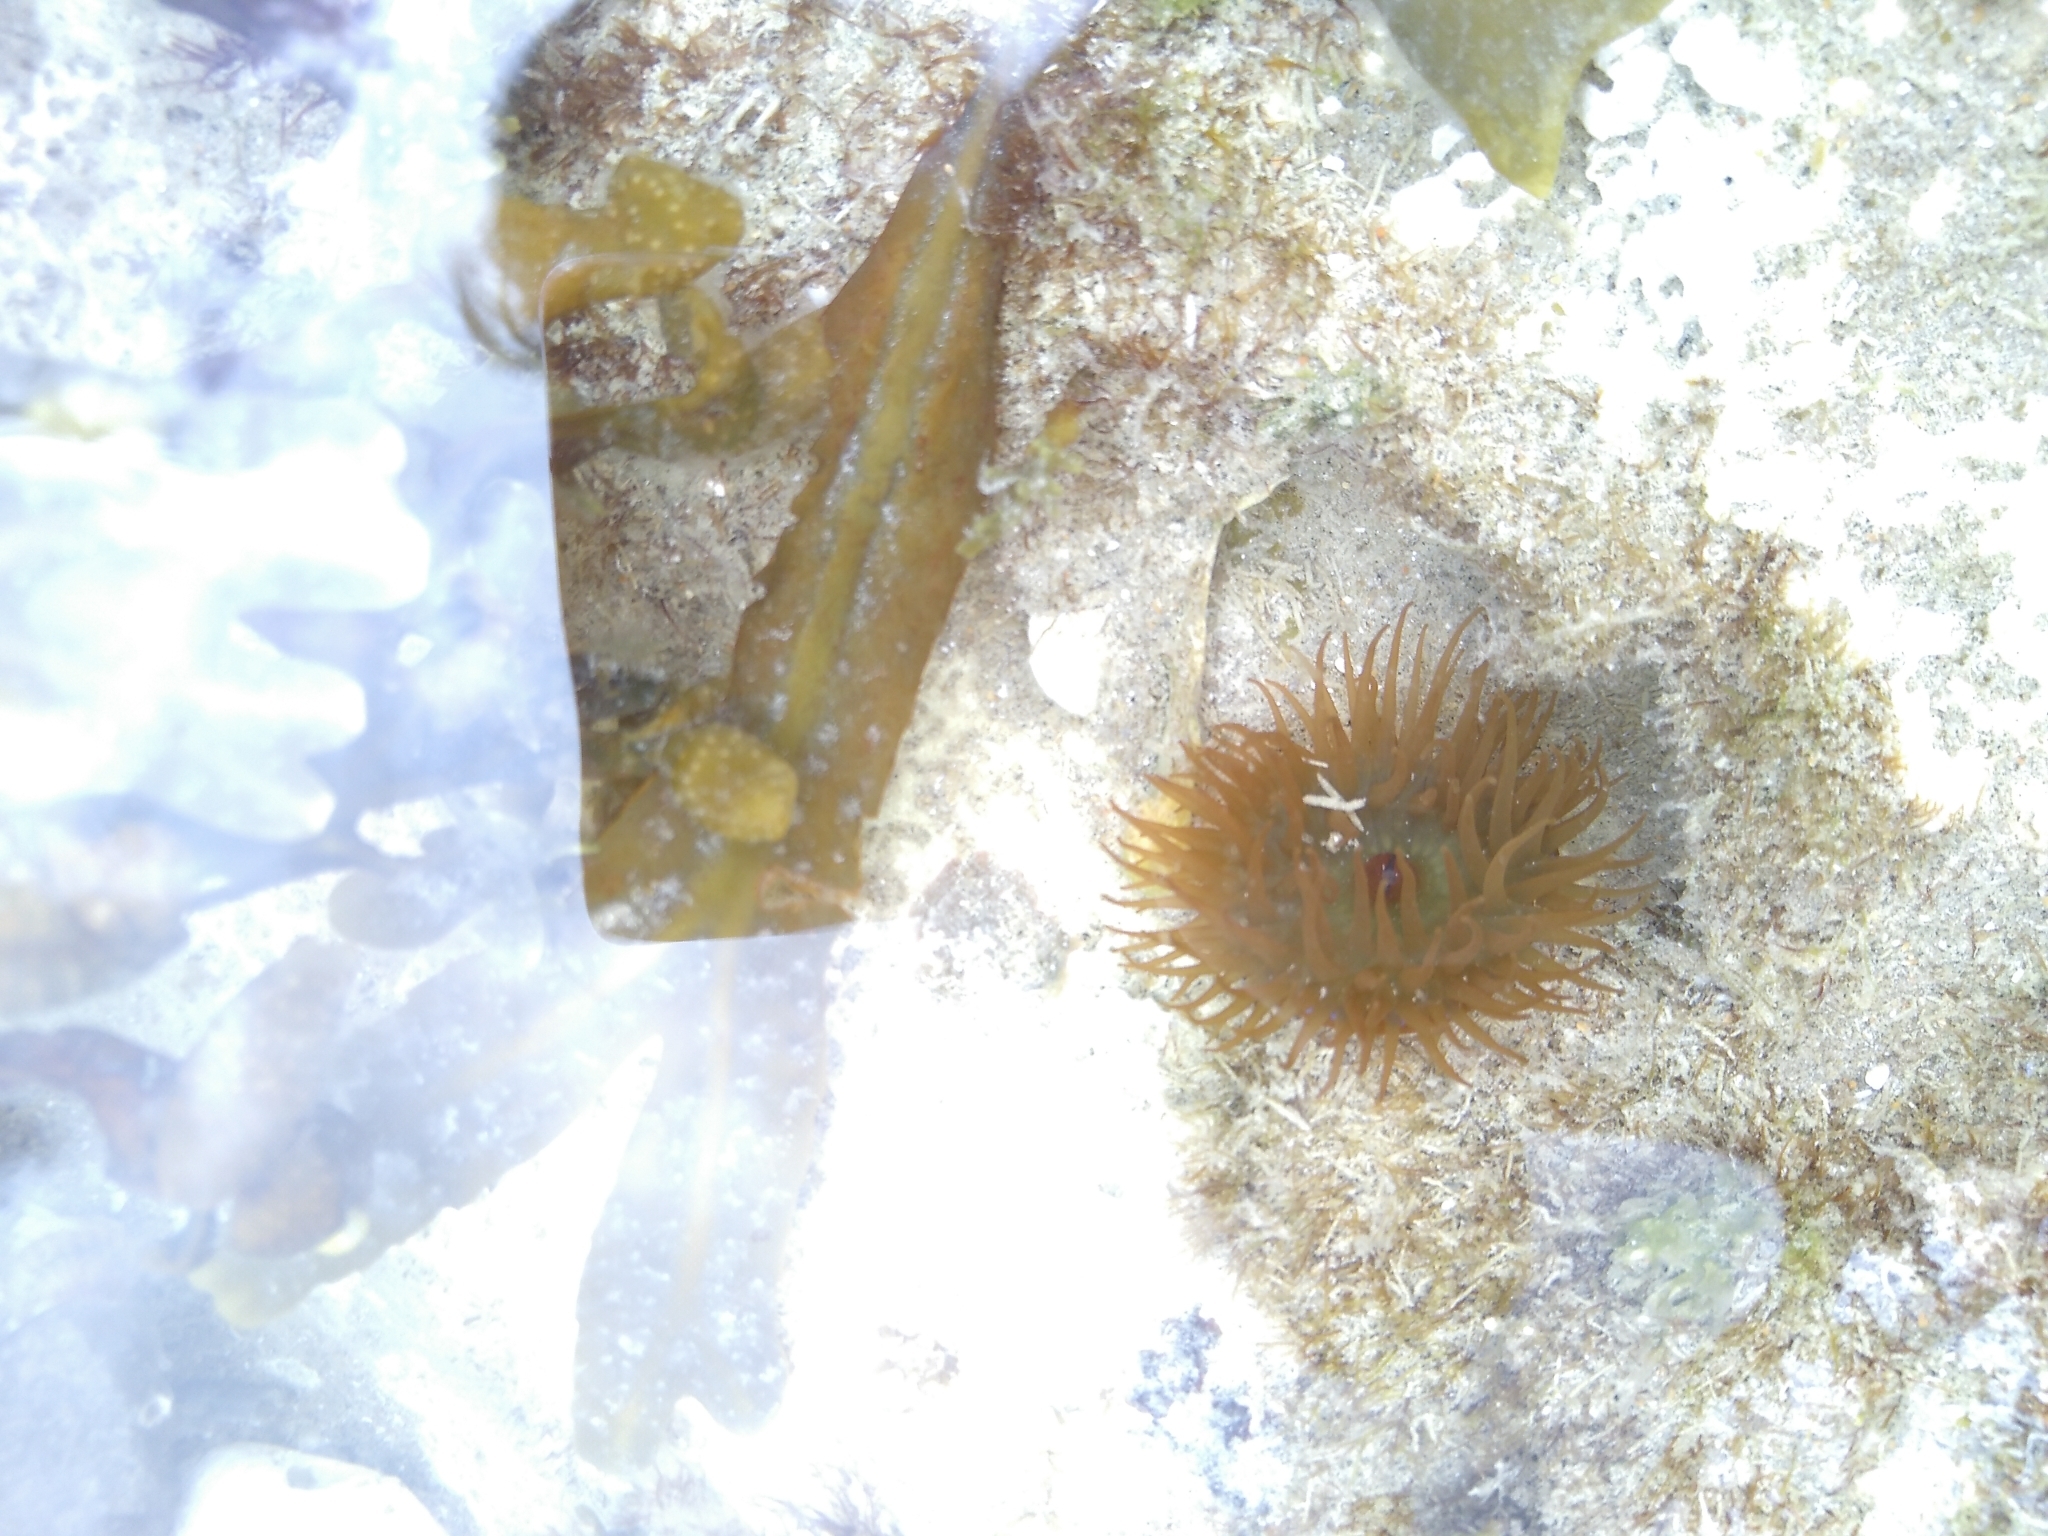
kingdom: Animalia
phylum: Cnidaria
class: Anthozoa
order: Actiniaria
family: Actiniidae
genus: Actinia
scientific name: Actinia equina
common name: Beadlet anemone
